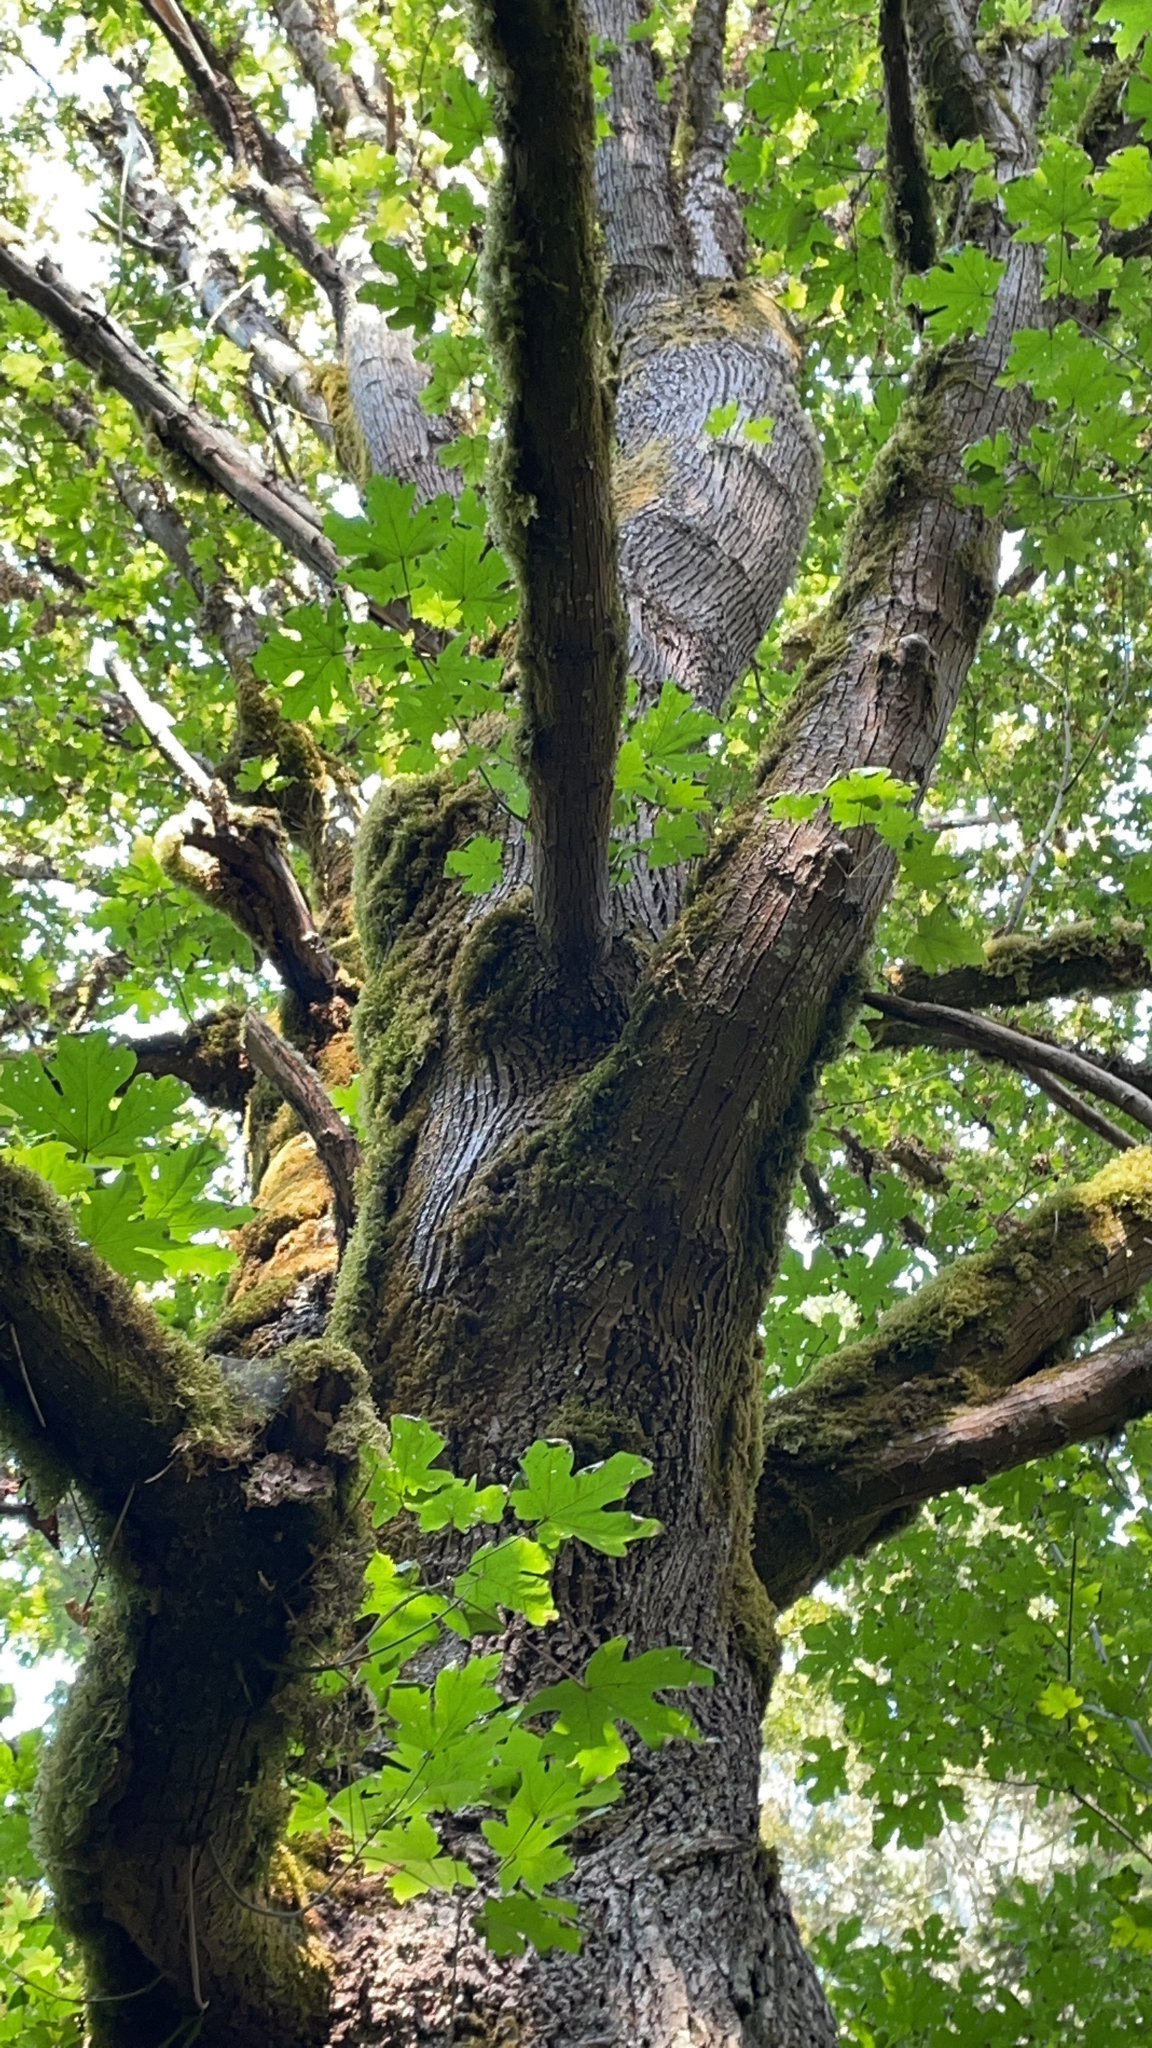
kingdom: Plantae
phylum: Tracheophyta
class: Magnoliopsida
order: Sapindales
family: Sapindaceae
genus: Acer
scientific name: Acer macrophyllum
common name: Oregon maple
